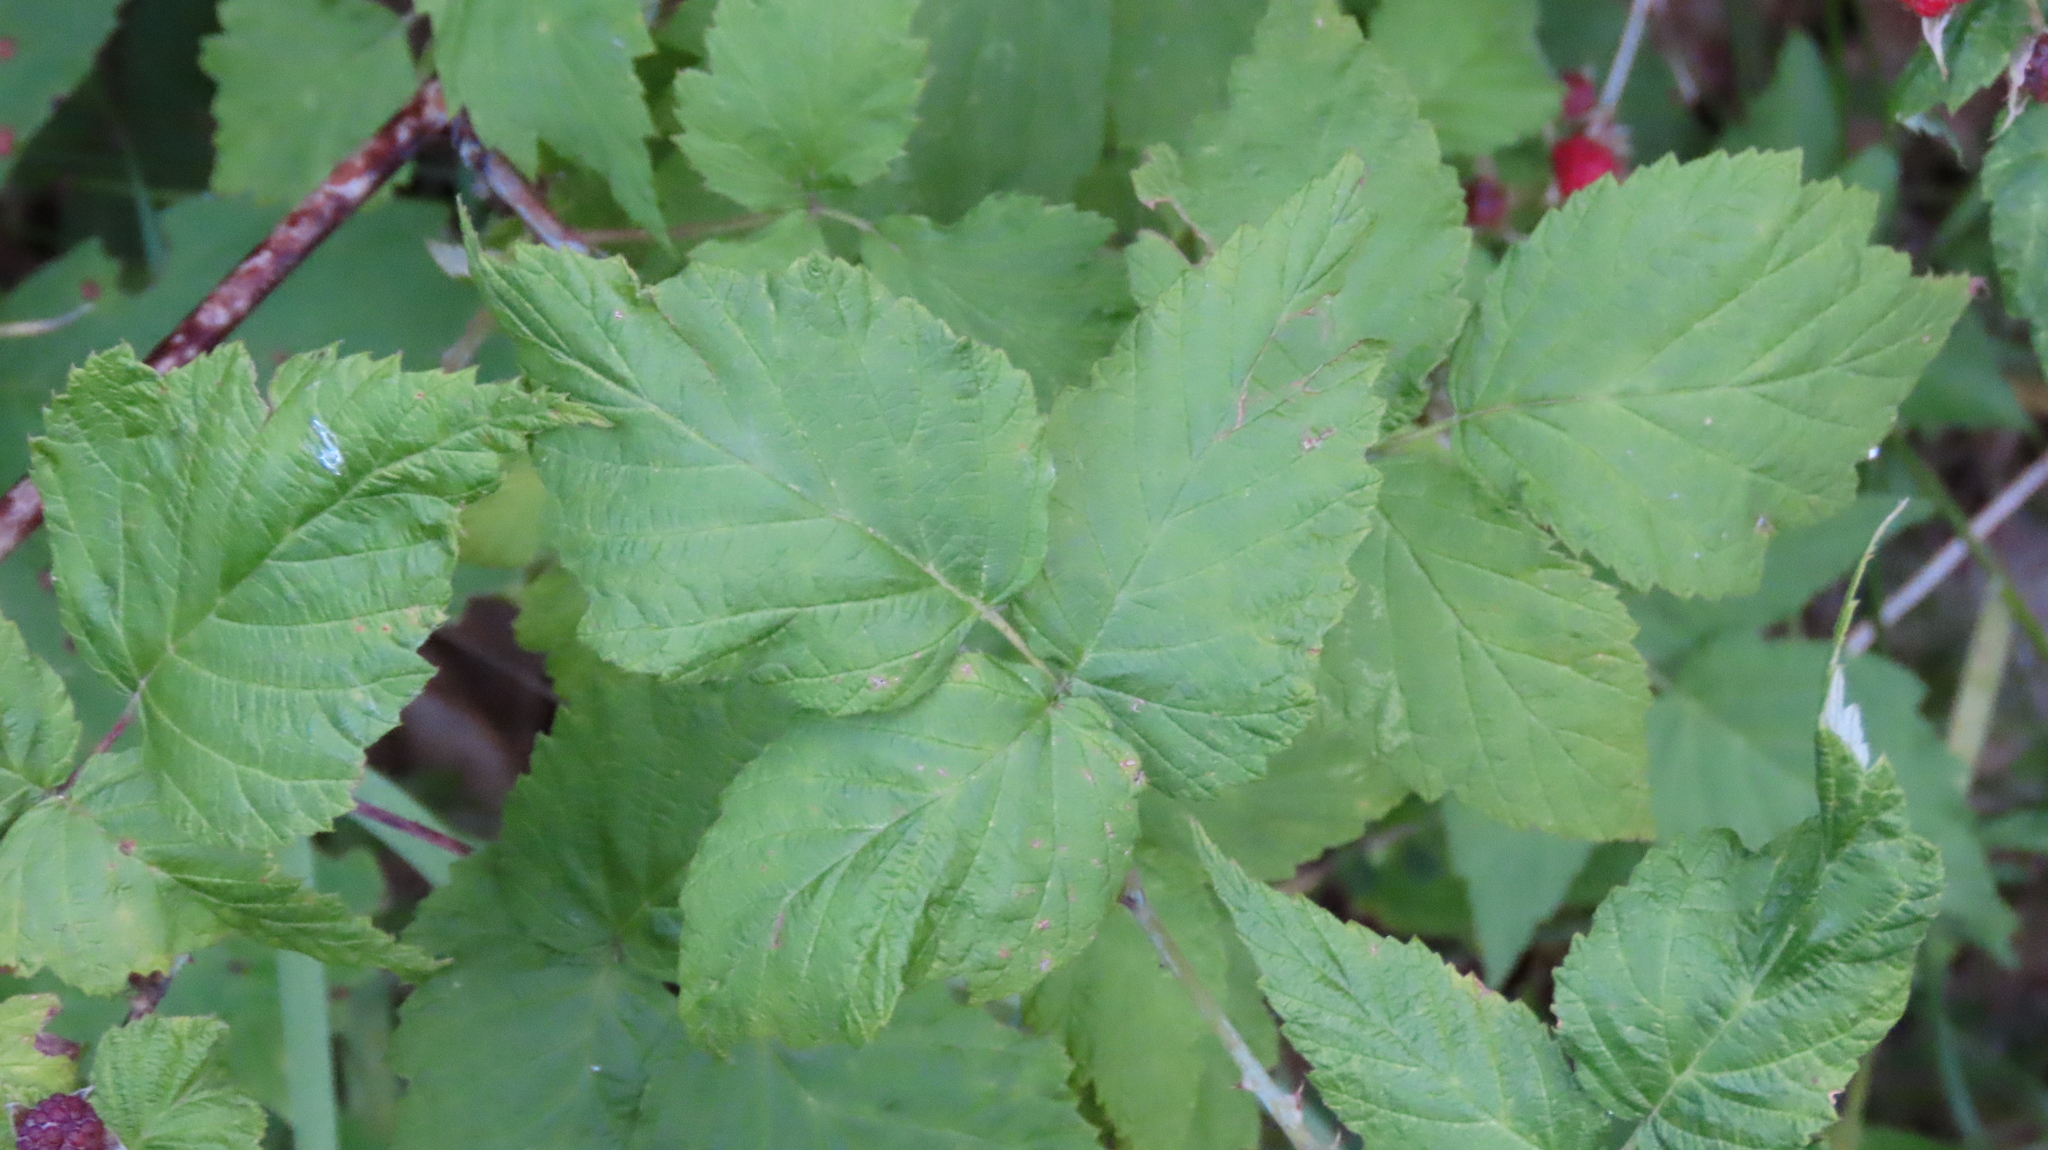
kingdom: Plantae
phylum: Tracheophyta
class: Magnoliopsida
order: Rosales
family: Rosaceae
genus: Rubus
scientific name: Rubus occidentalis
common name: Black raspberry
